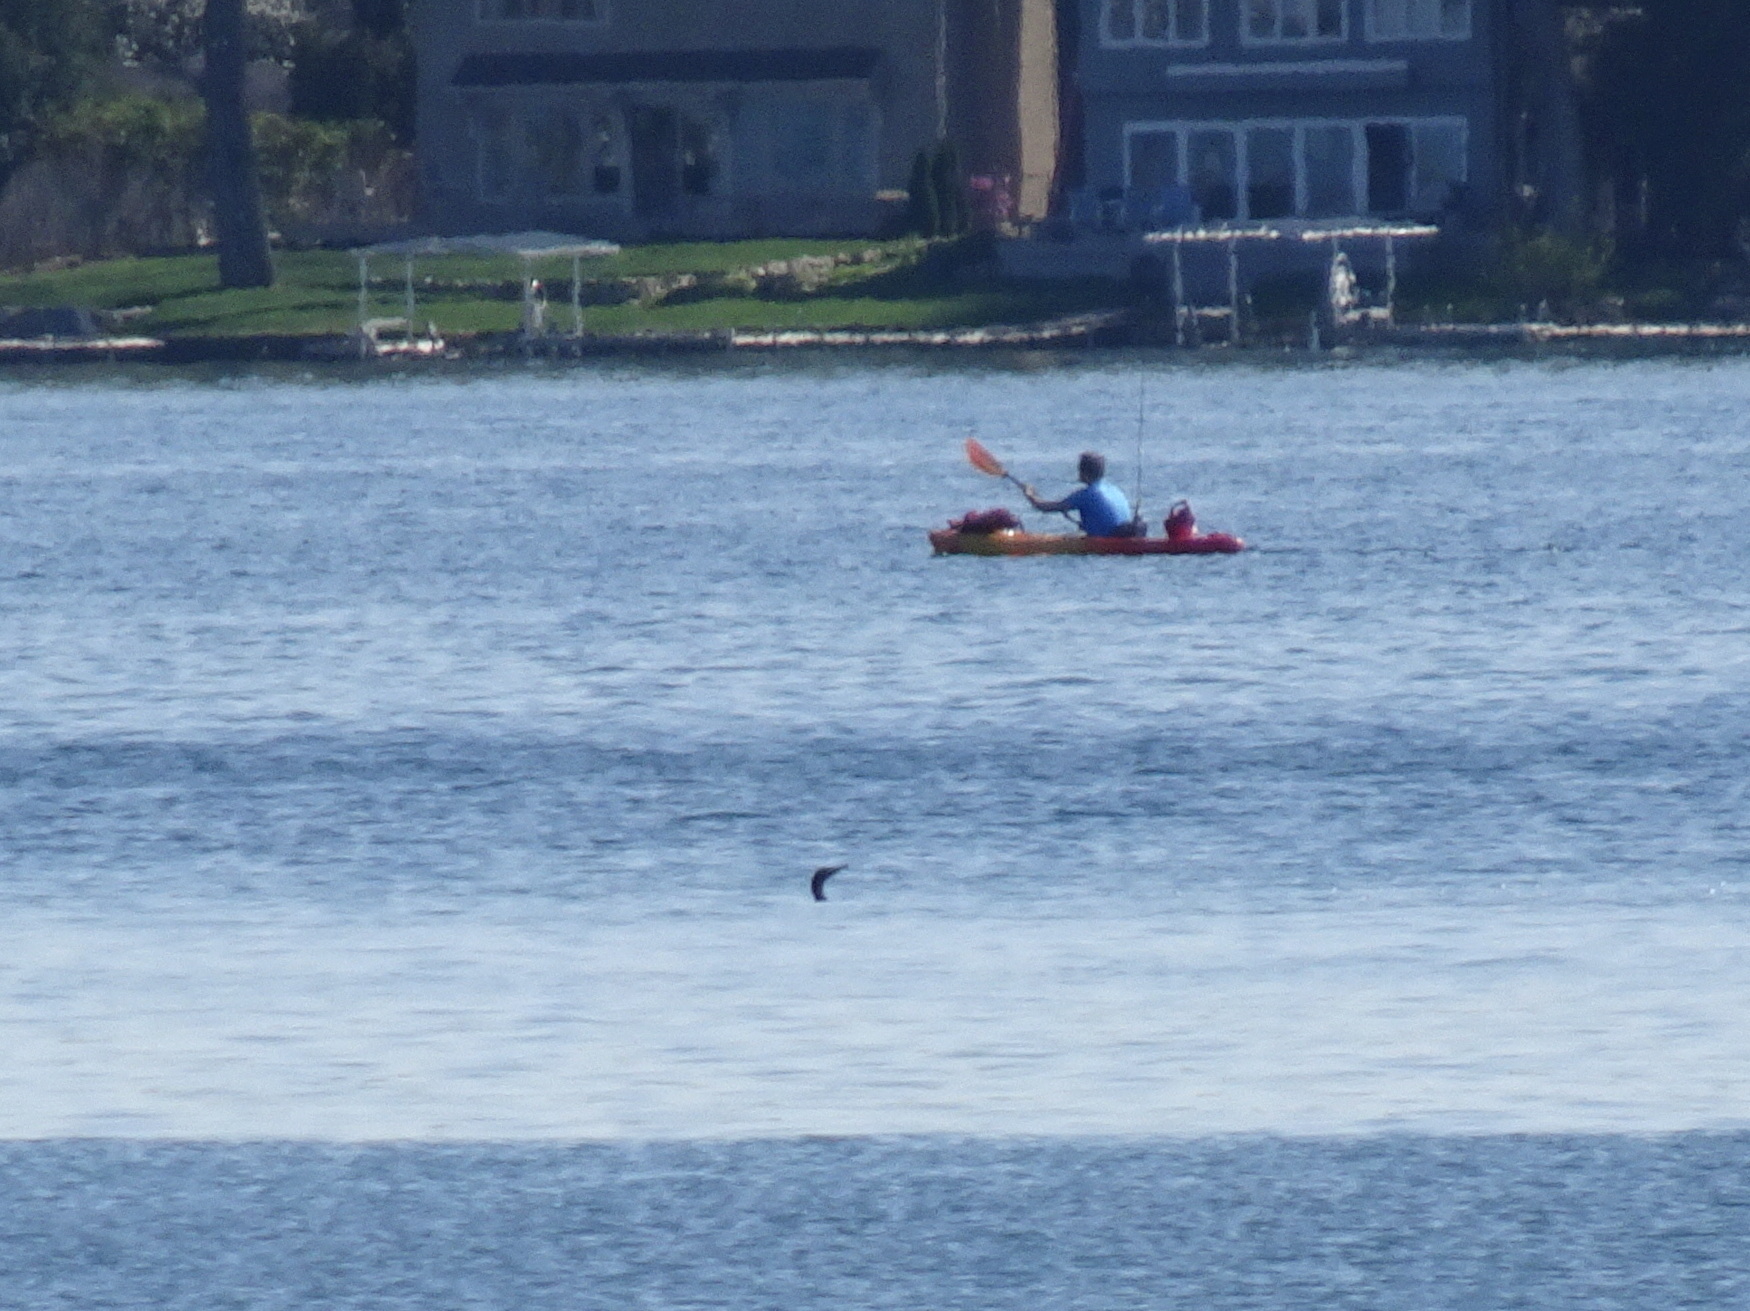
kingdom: Animalia
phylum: Chordata
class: Aves
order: Suliformes
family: Phalacrocoracidae
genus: Phalacrocorax
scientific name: Phalacrocorax auritus
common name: Double-crested cormorant
